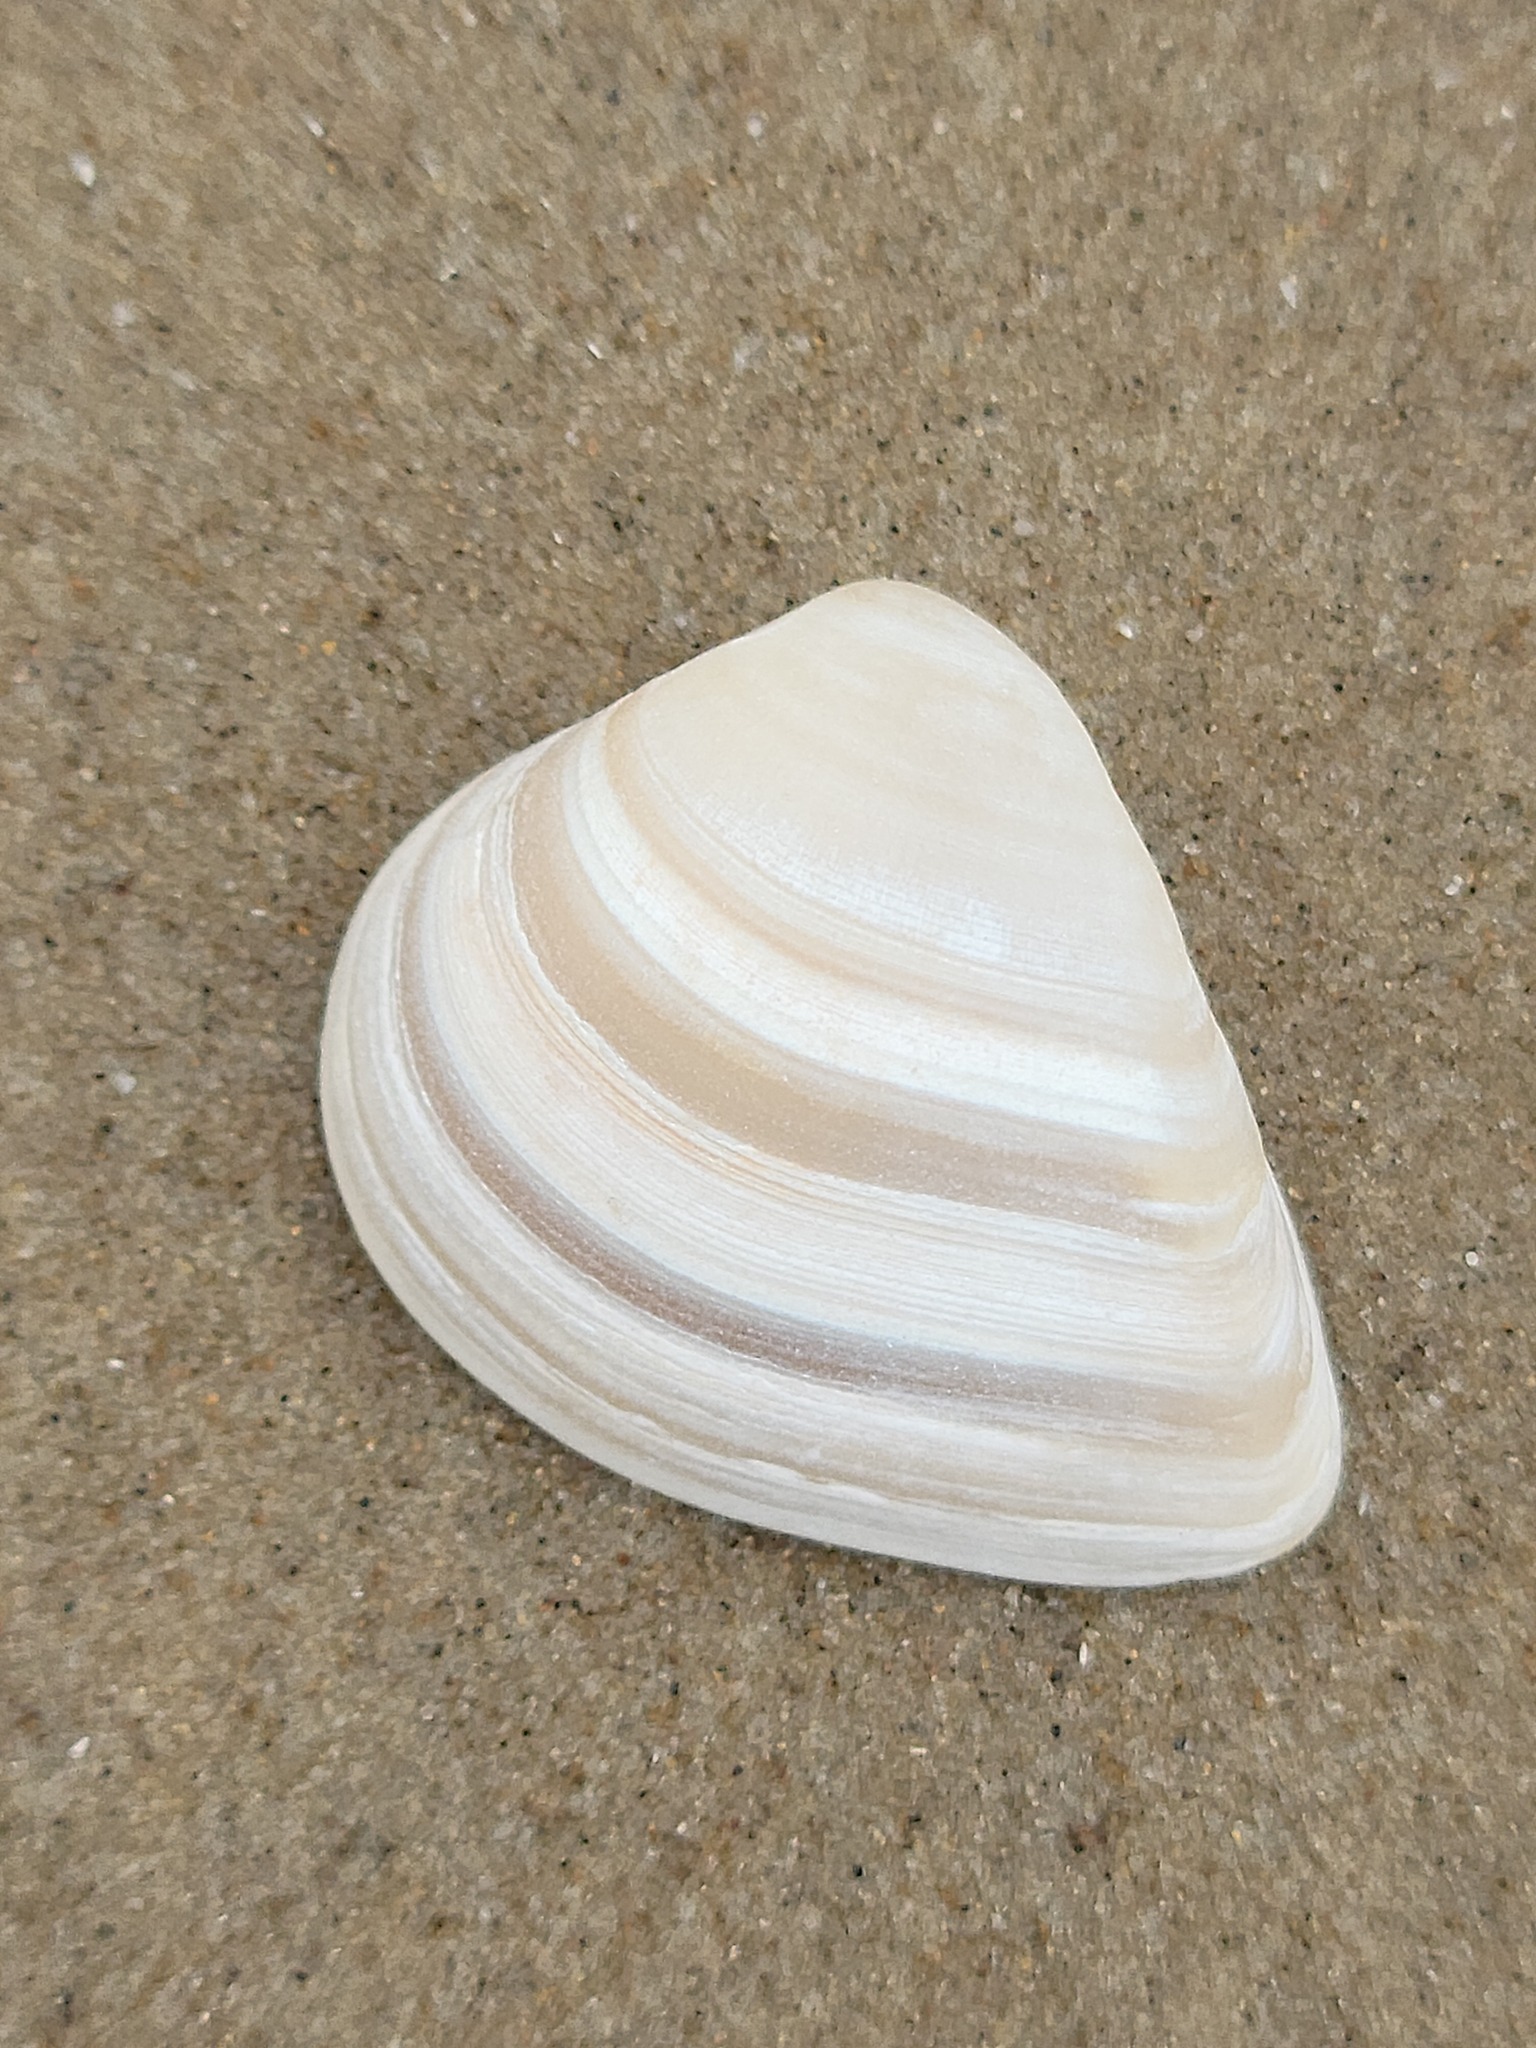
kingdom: Animalia
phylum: Mollusca
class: Bivalvia
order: Venerida
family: Mactridae
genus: Rangia
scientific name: Rangia flexuosa
